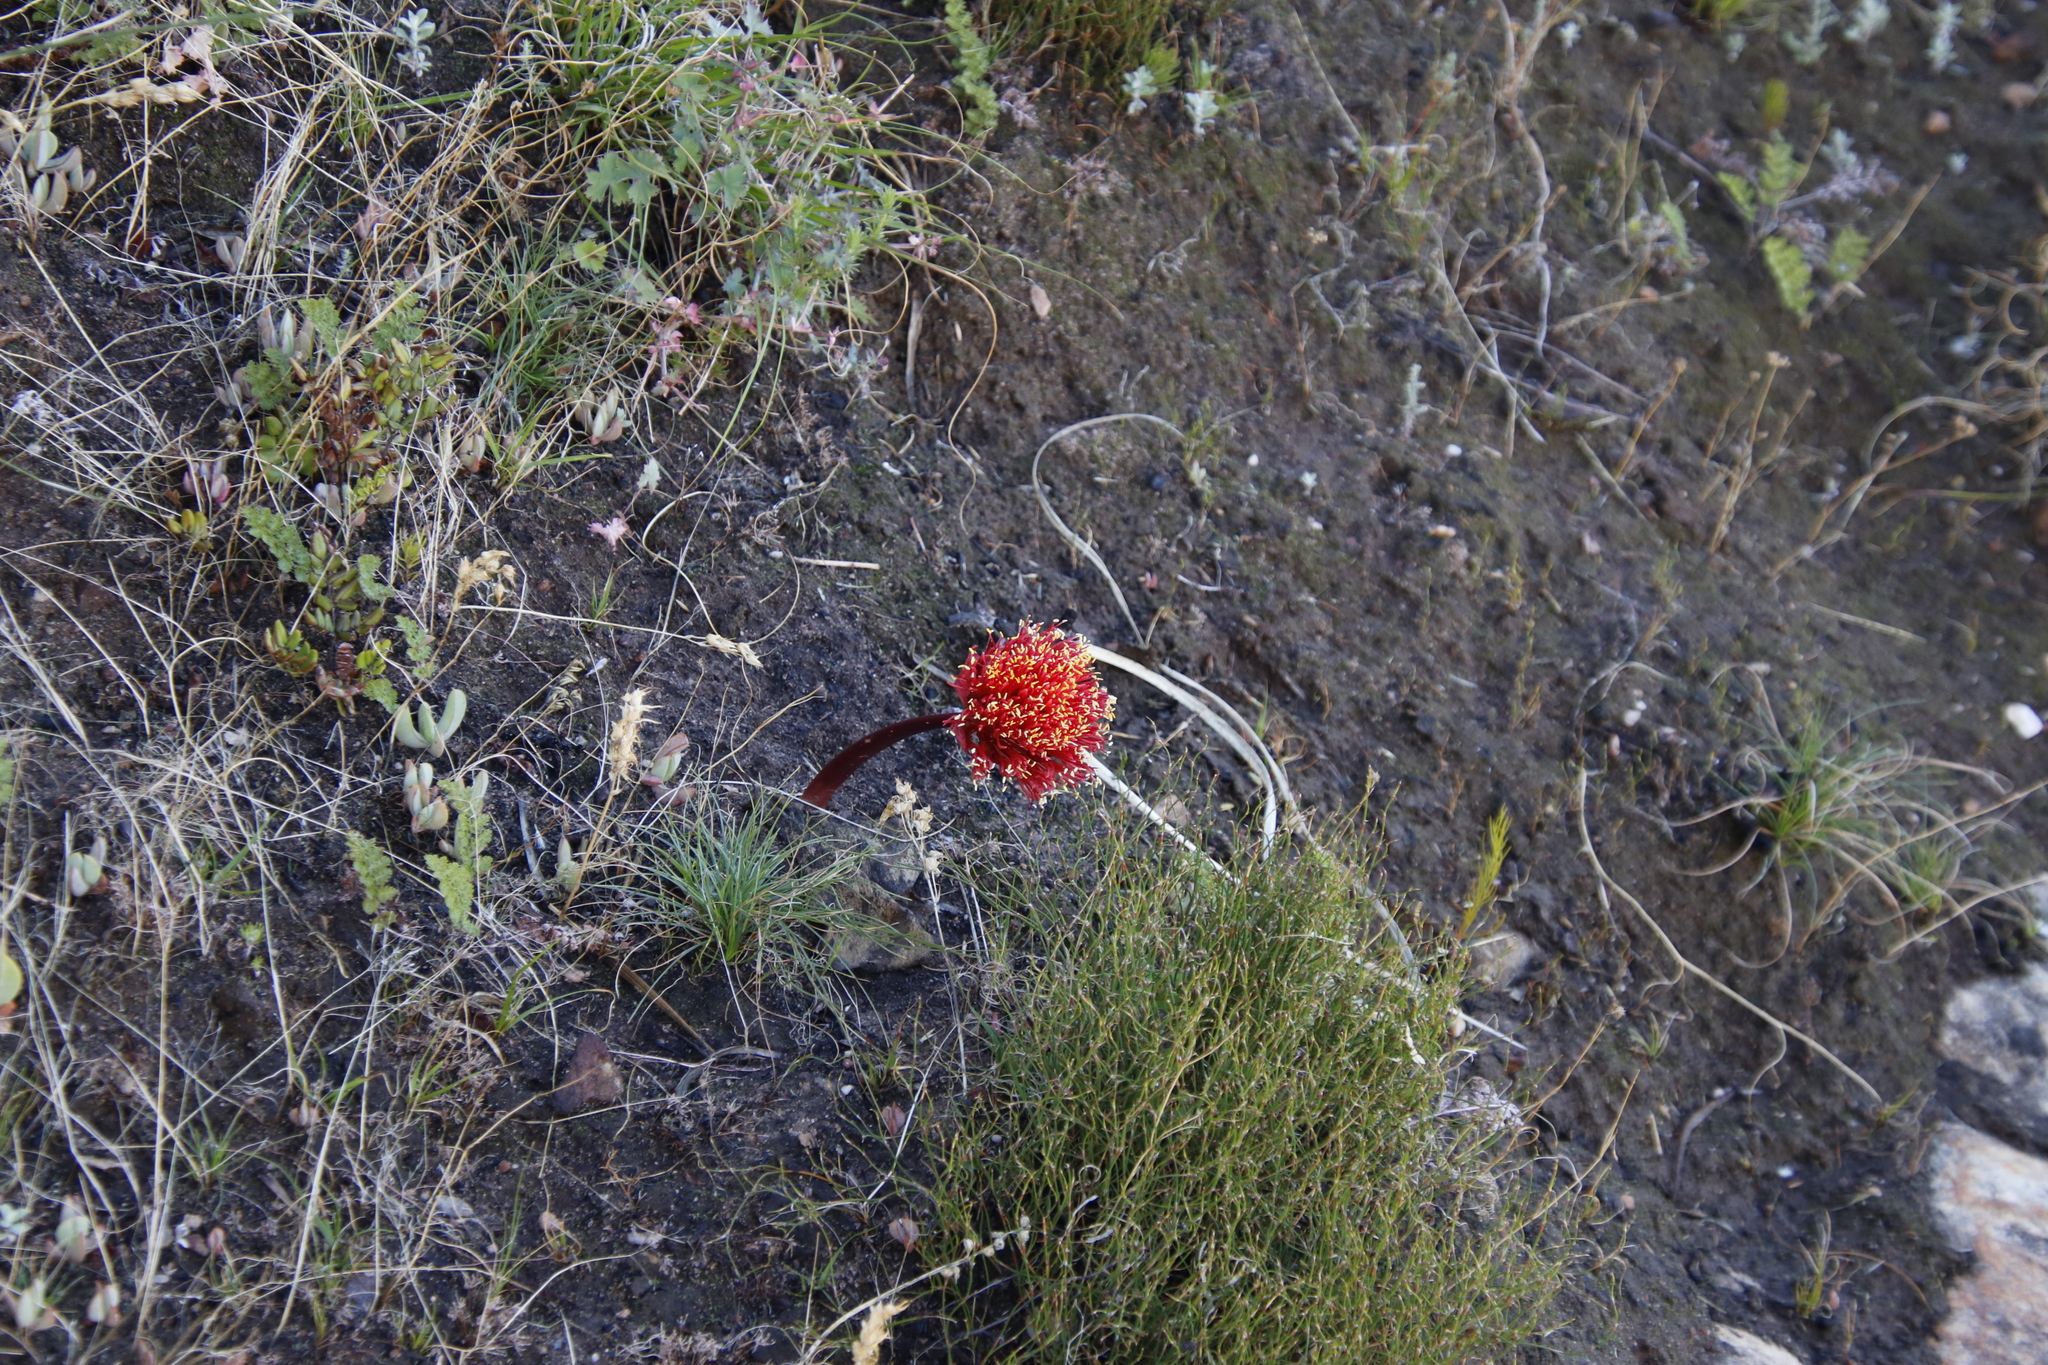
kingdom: Plantae
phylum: Tracheophyta
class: Liliopsida
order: Asparagales
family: Amaryllidaceae
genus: Haemanthus
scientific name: Haemanthus sanguineus
